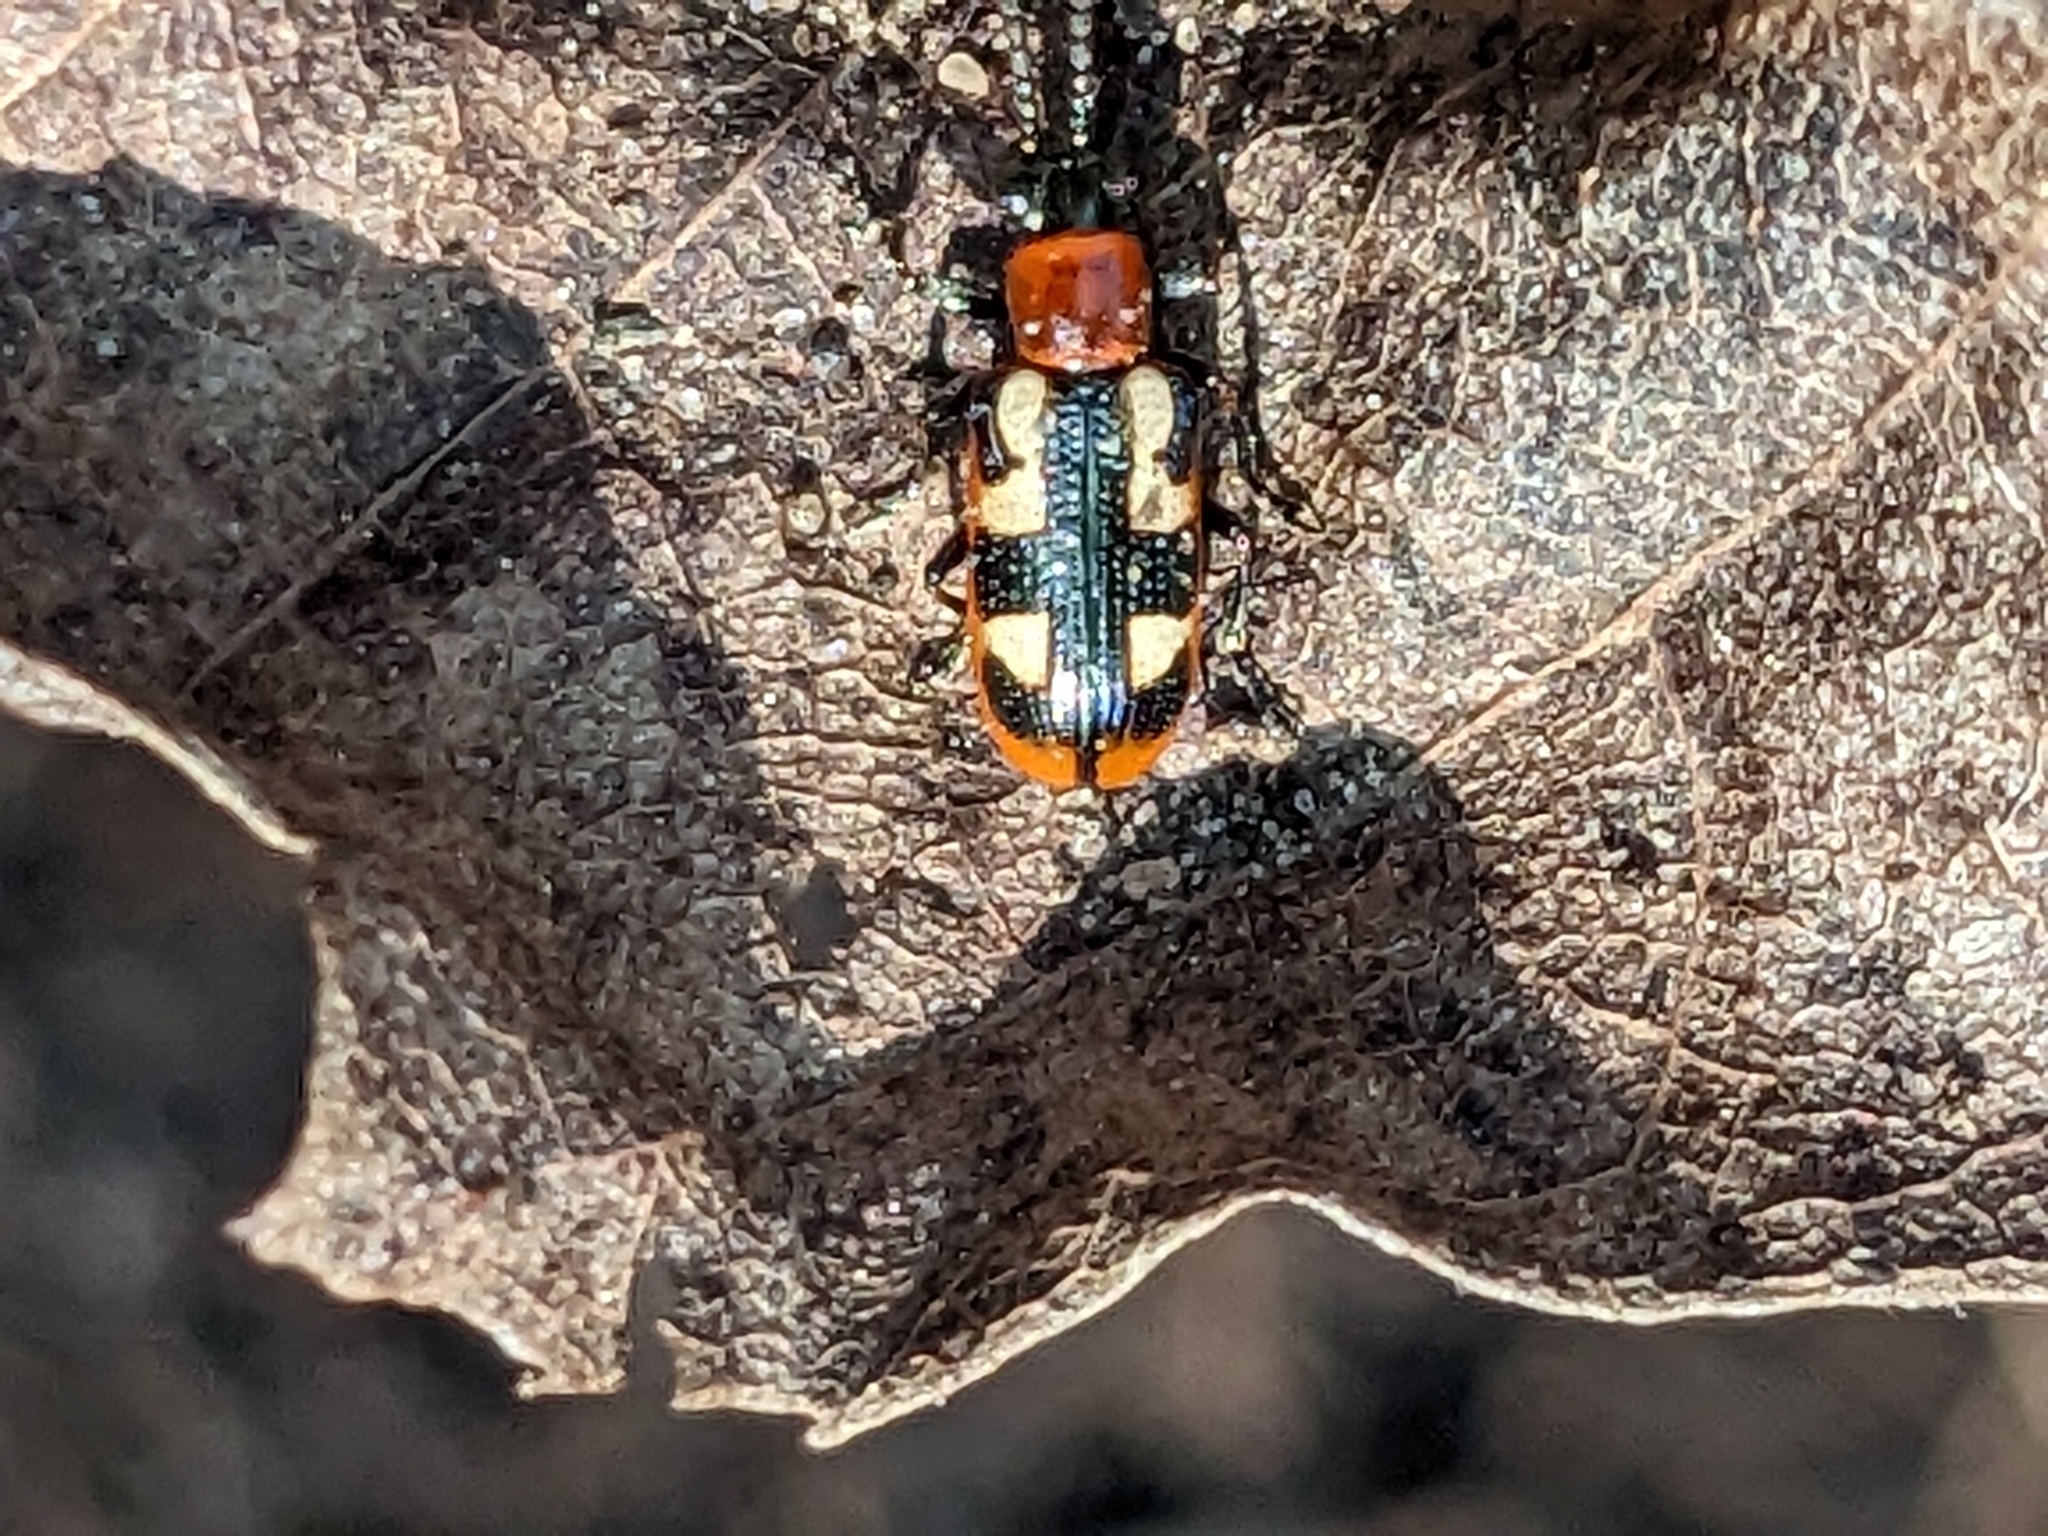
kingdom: Animalia
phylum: Arthropoda
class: Insecta
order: Coleoptera
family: Chrysomelidae
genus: Crioceris
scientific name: Crioceris asparagi
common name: Asparagus beetle
